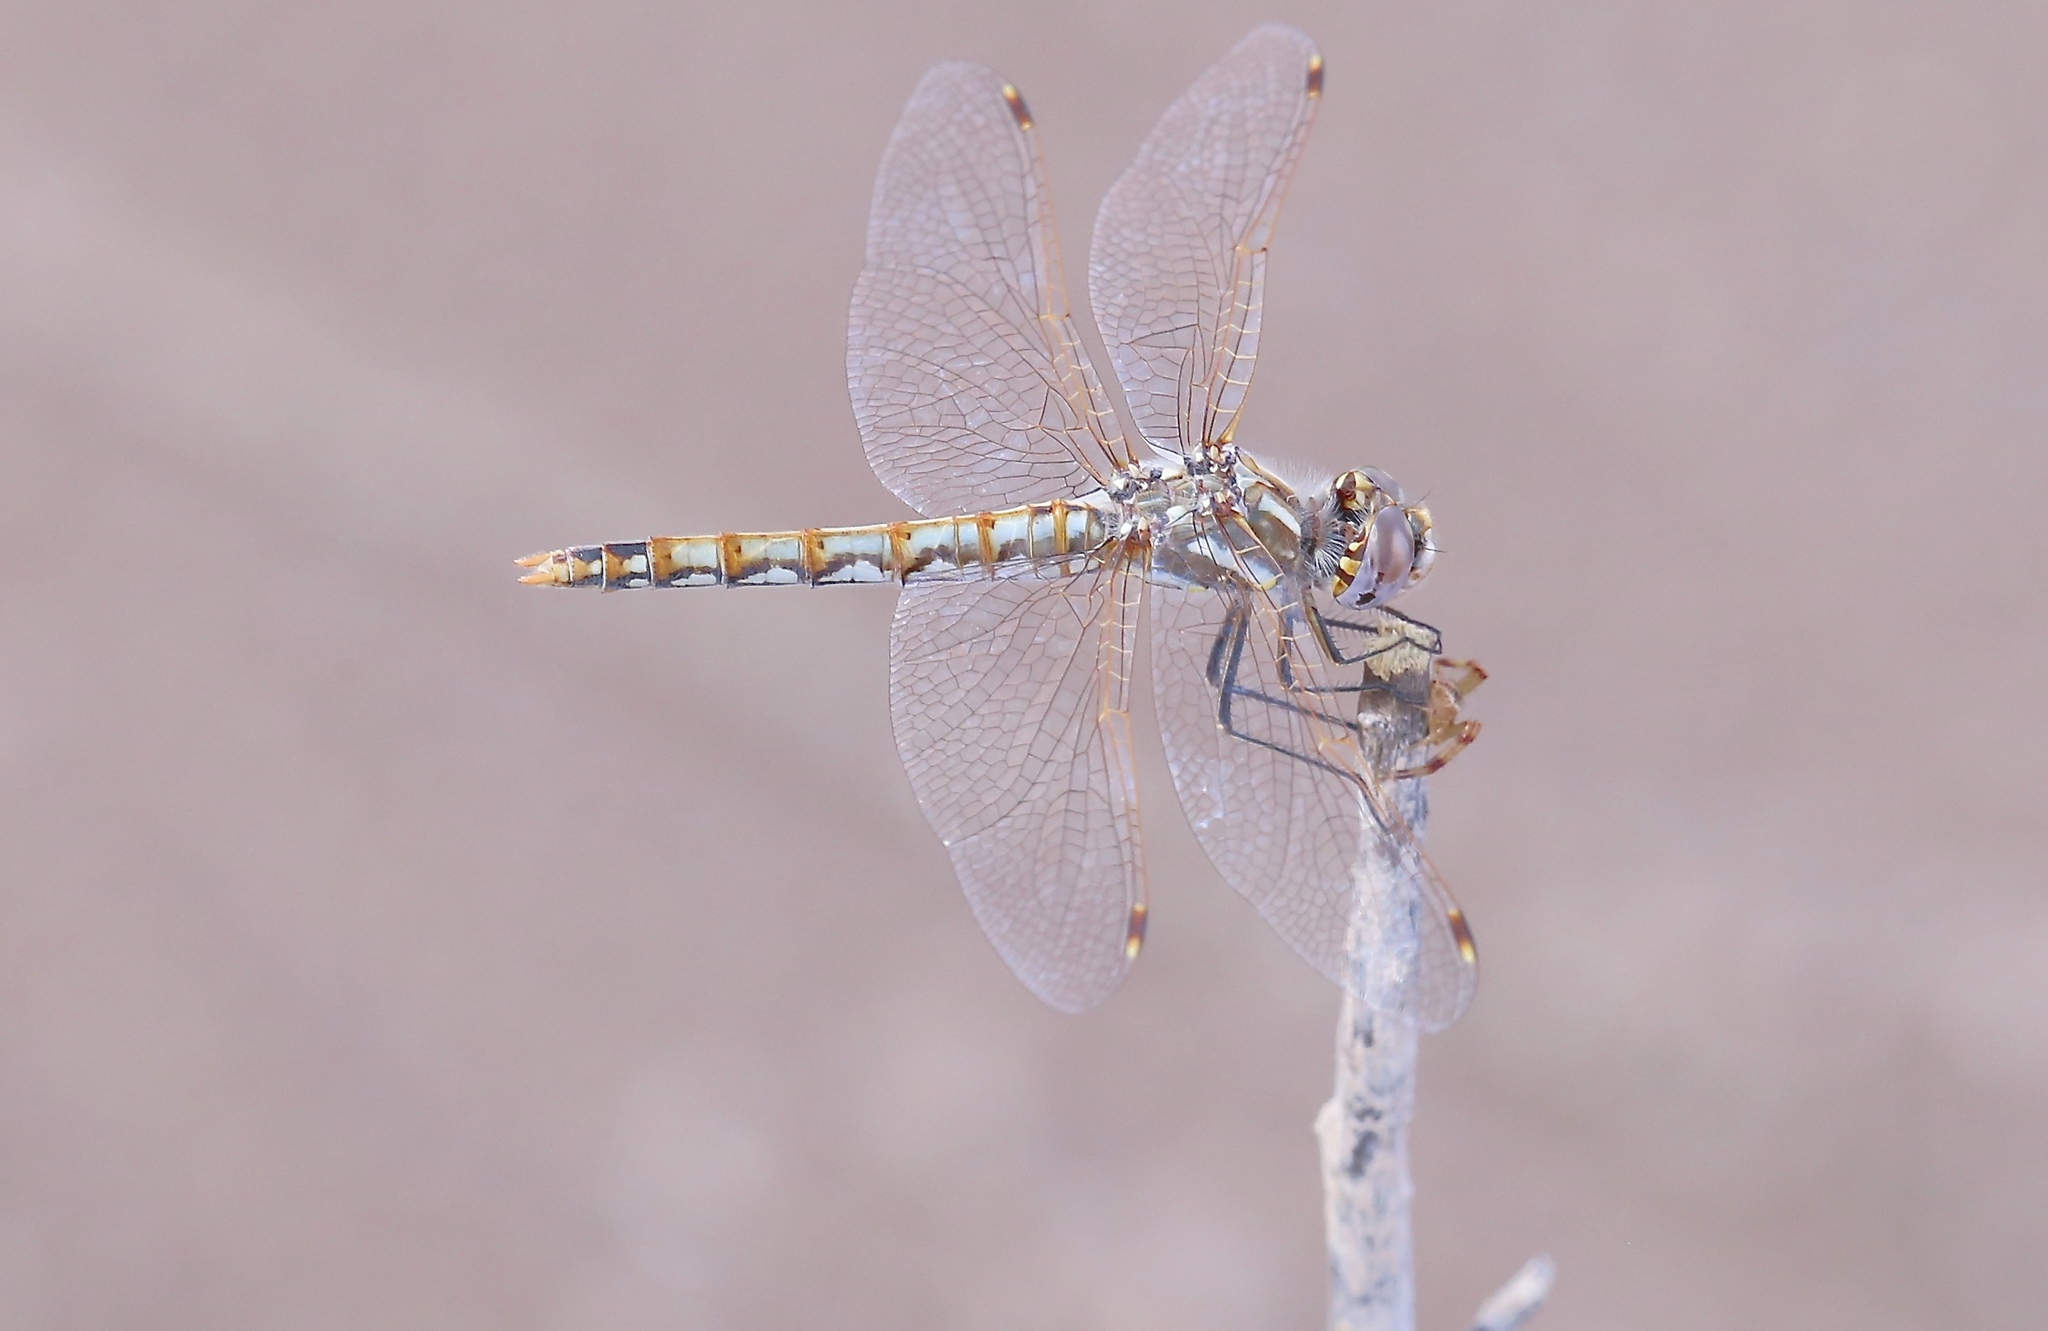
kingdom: Animalia
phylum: Arthropoda
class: Insecta
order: Odonata
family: Libellulidae
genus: Sympetrum
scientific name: Sympetrum corruptum
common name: Variegated meadowhawk
